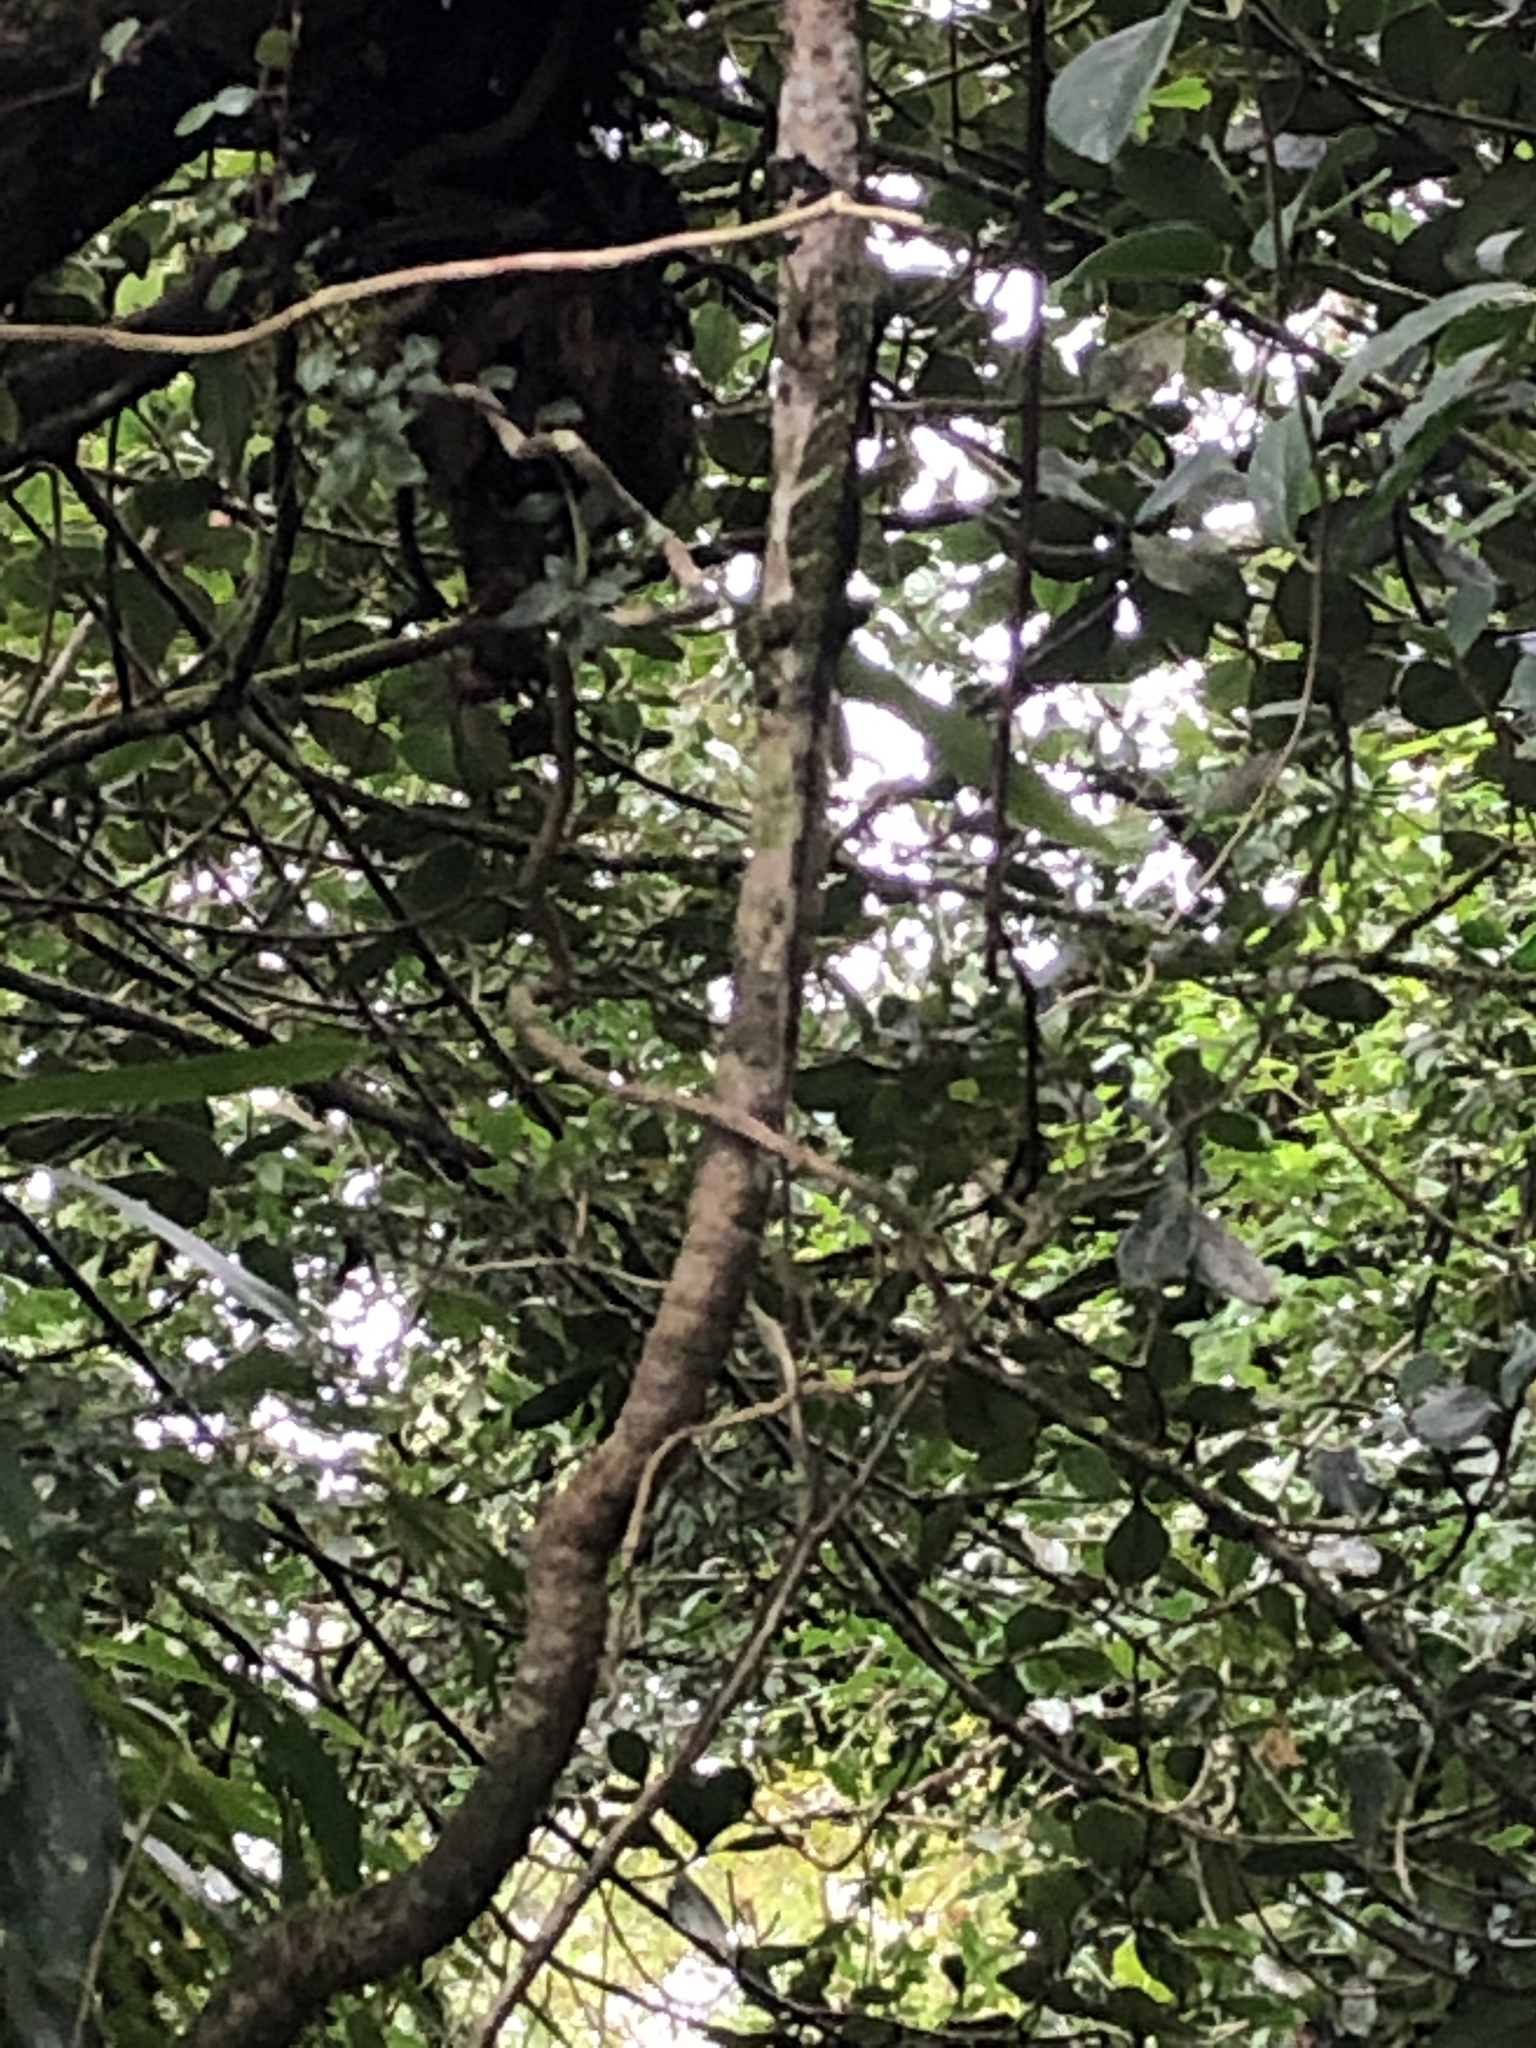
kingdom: Animalia
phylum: Chordata
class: Squamata
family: Dactyloidae
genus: Anolis
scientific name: Anolis insignis
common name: Decorated anole
